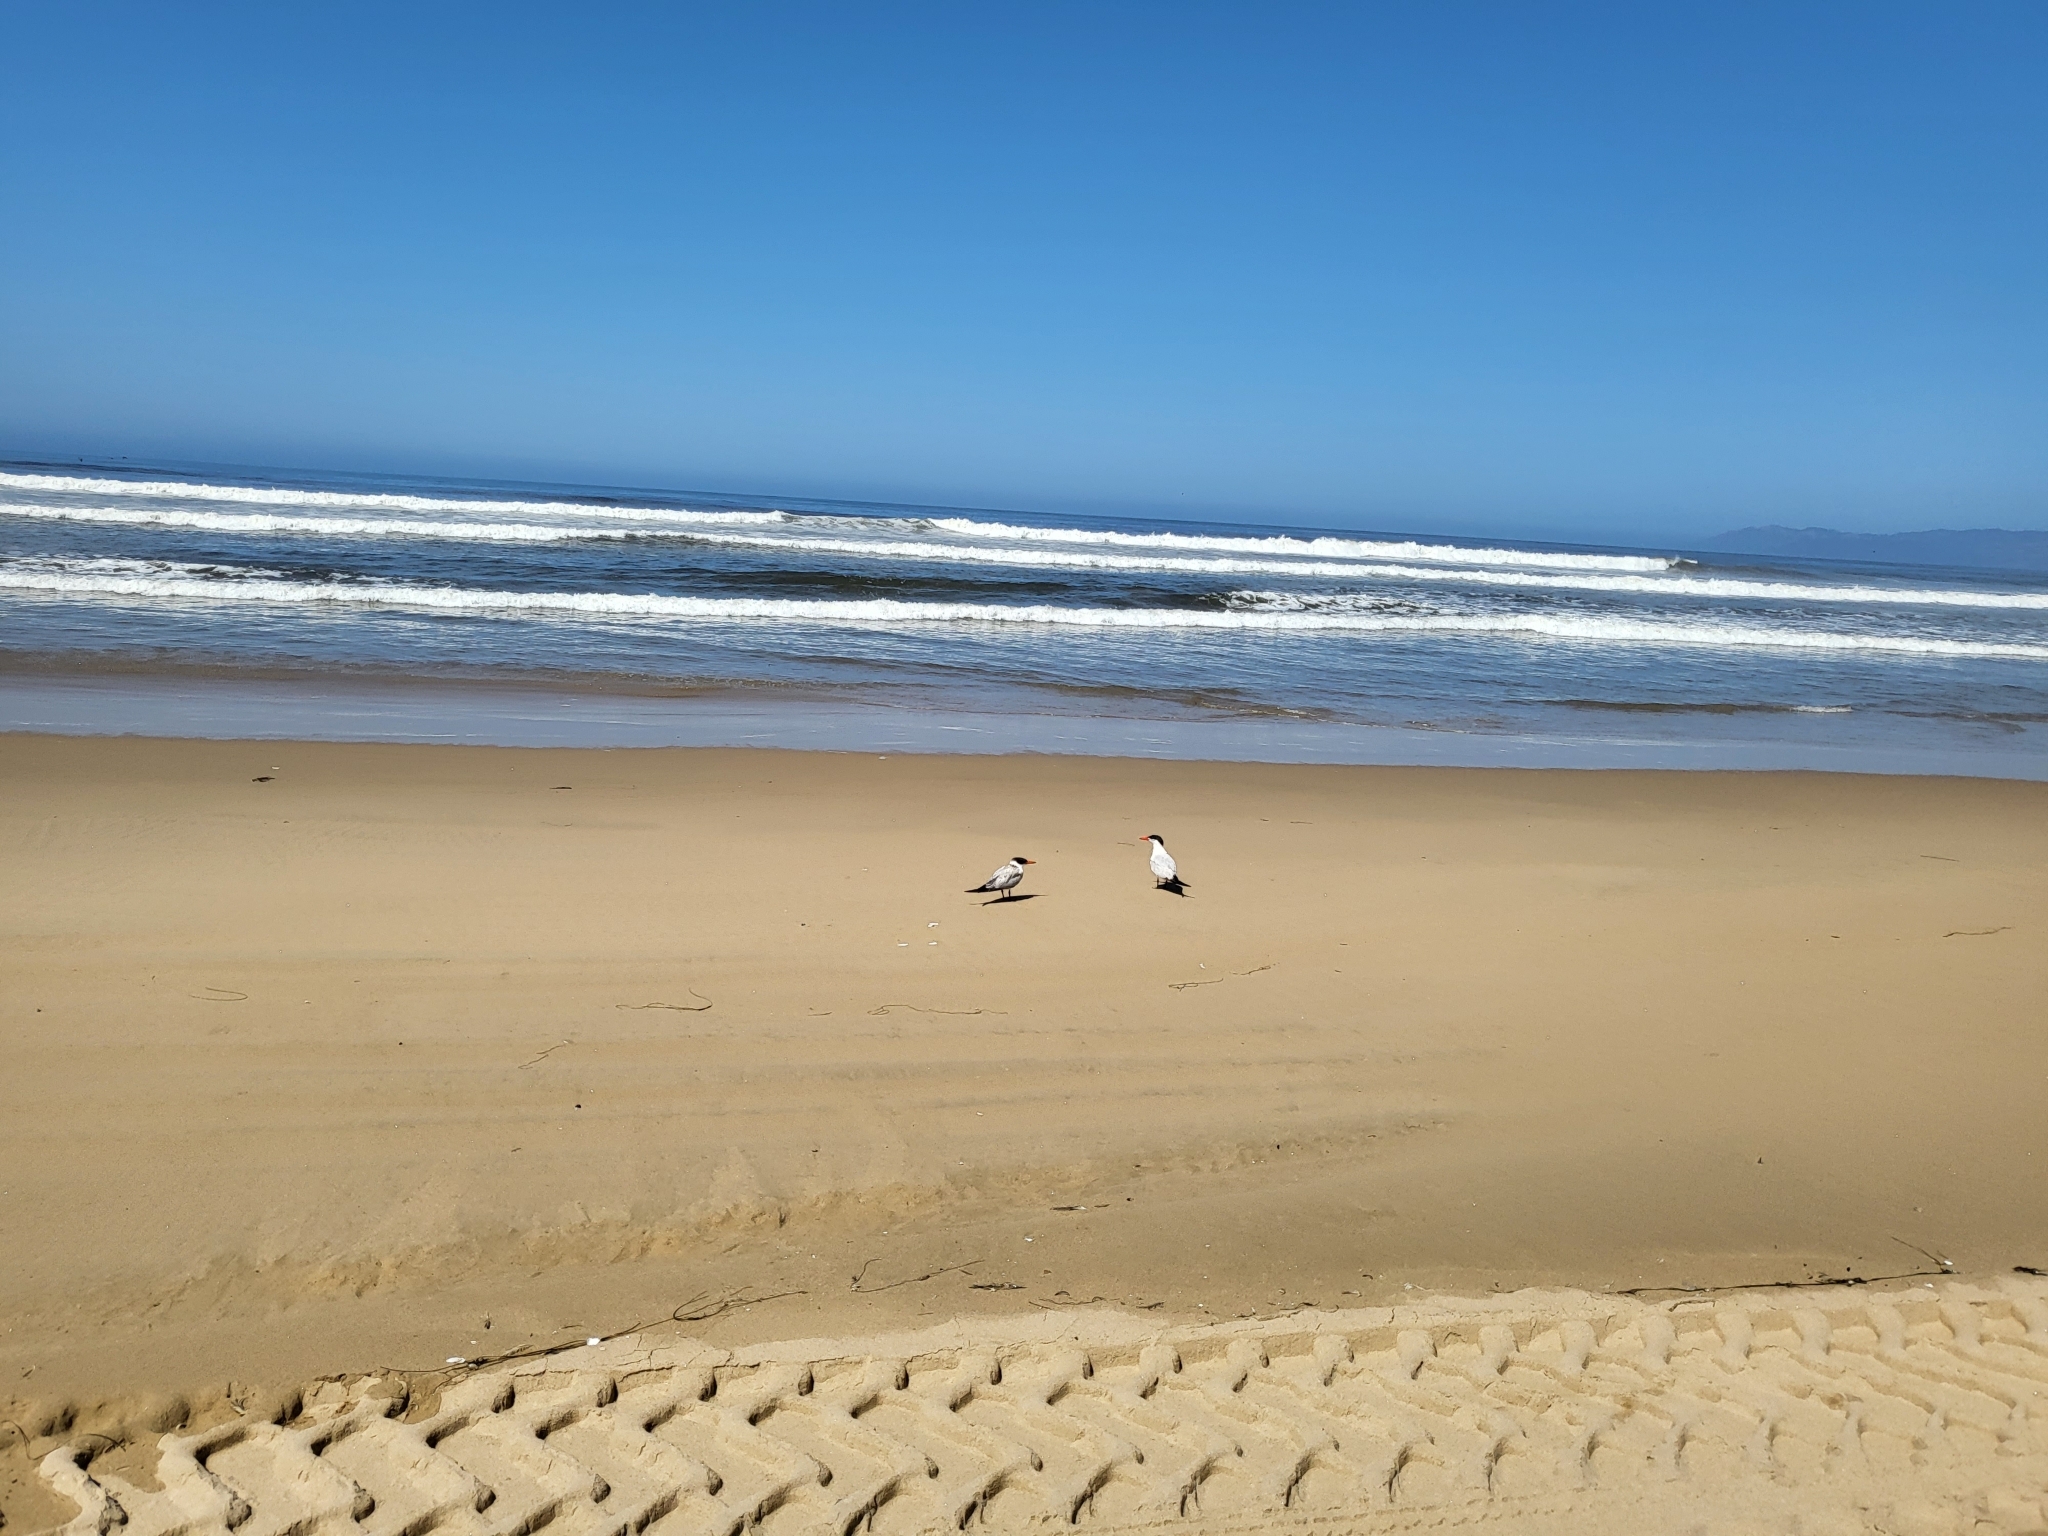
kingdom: Animalia
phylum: Chordata
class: Aves
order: Charadriiformes
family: Laridae
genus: Hydroprogne
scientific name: Hydroprogne caspia
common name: Caspian tern
